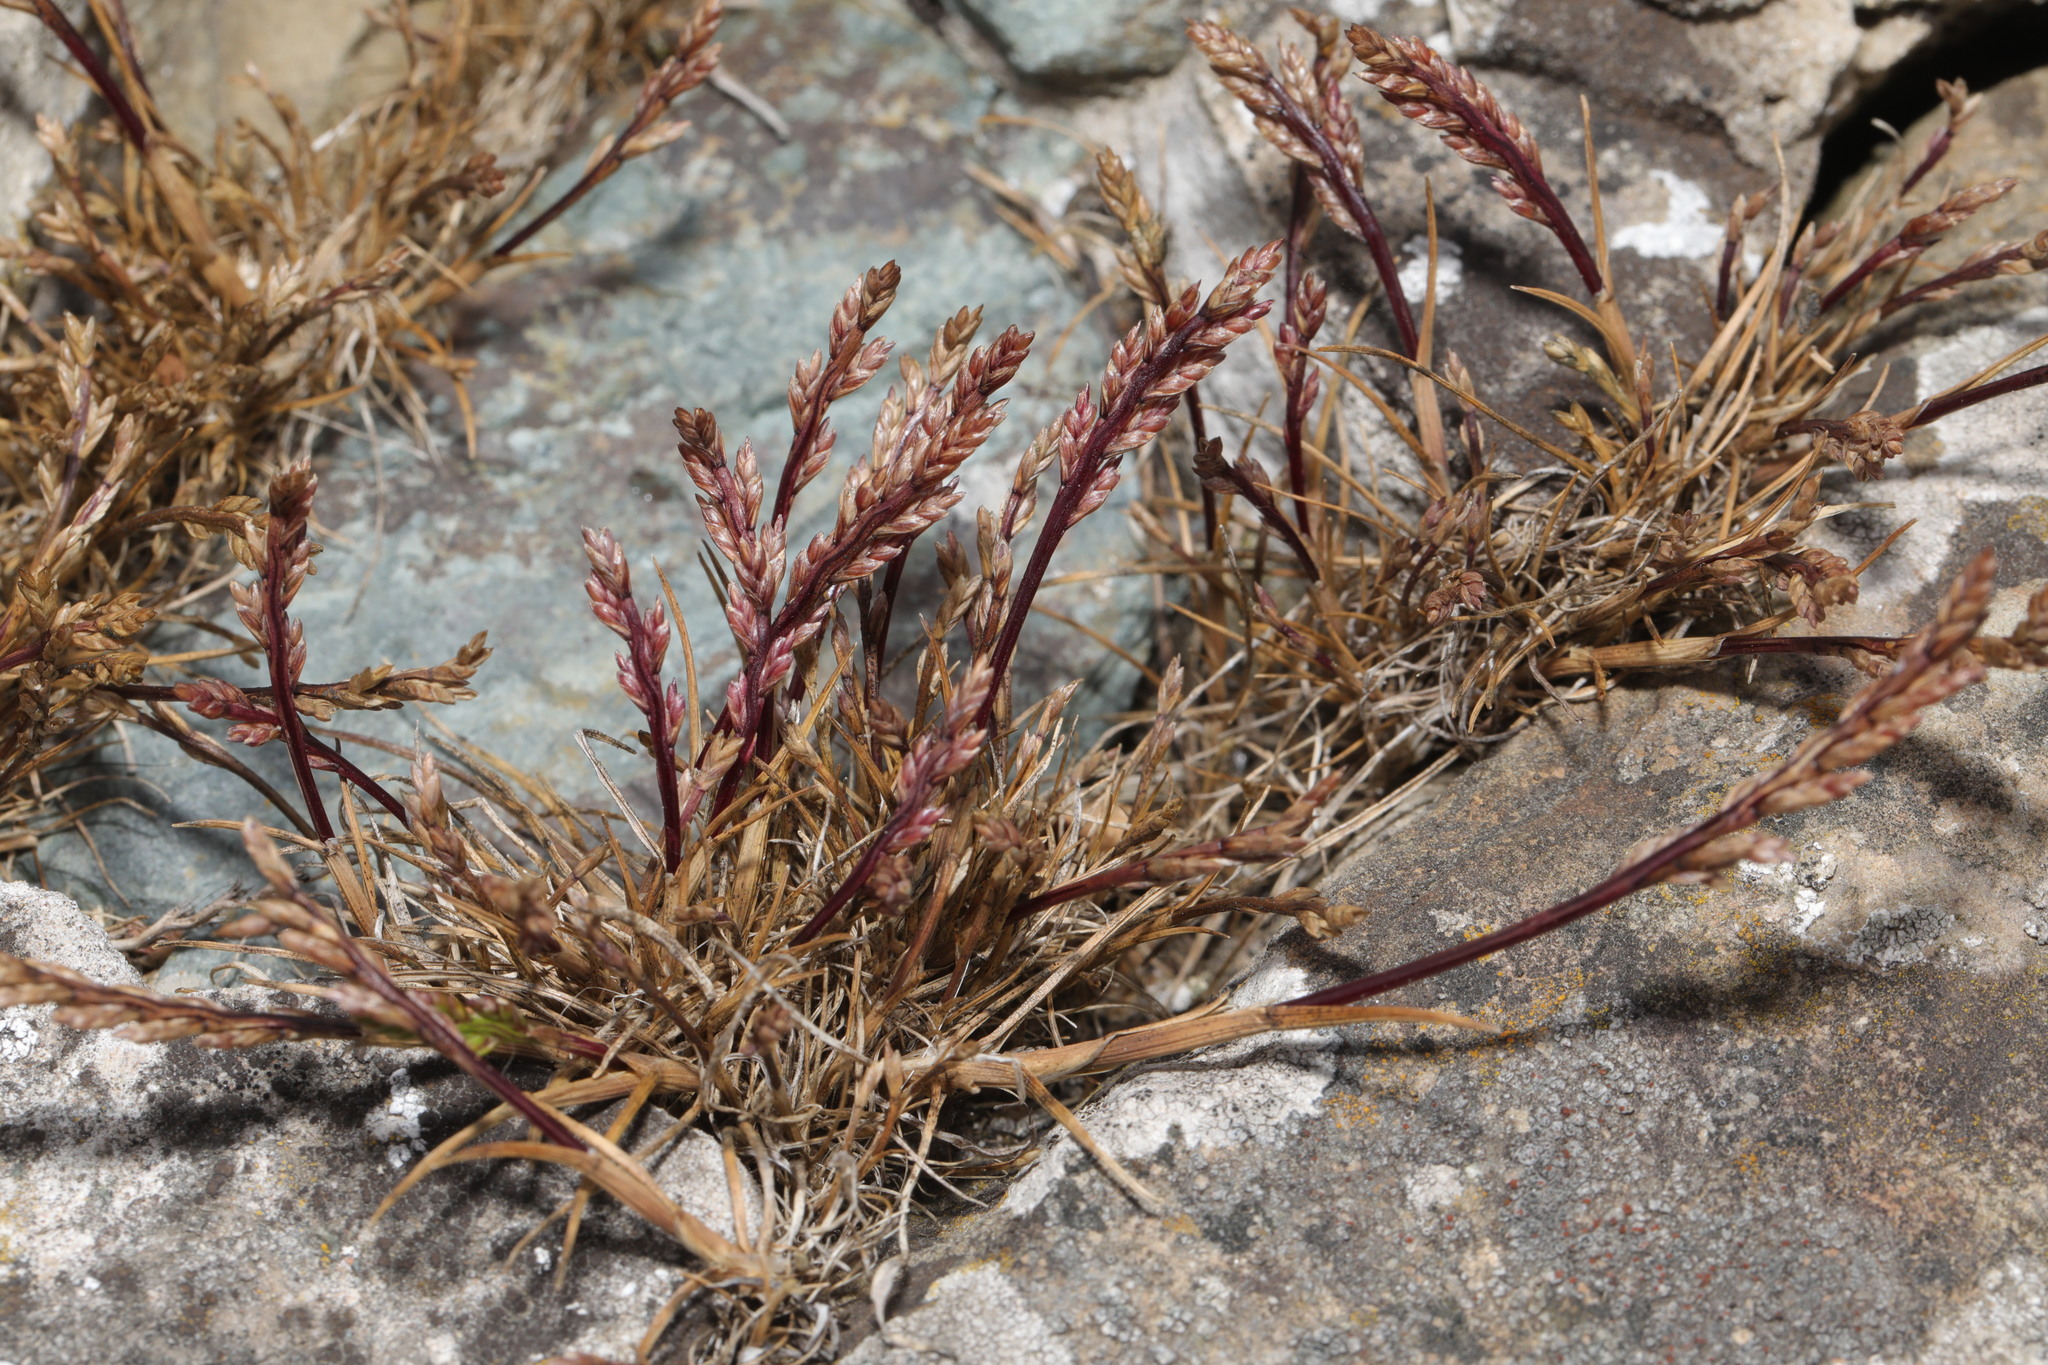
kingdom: Plantae
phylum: Tracheophyta
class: Liliopsida
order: Poales
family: Poaceae
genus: Catapodium
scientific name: Catapodium marinum
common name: Sea fern-grass
